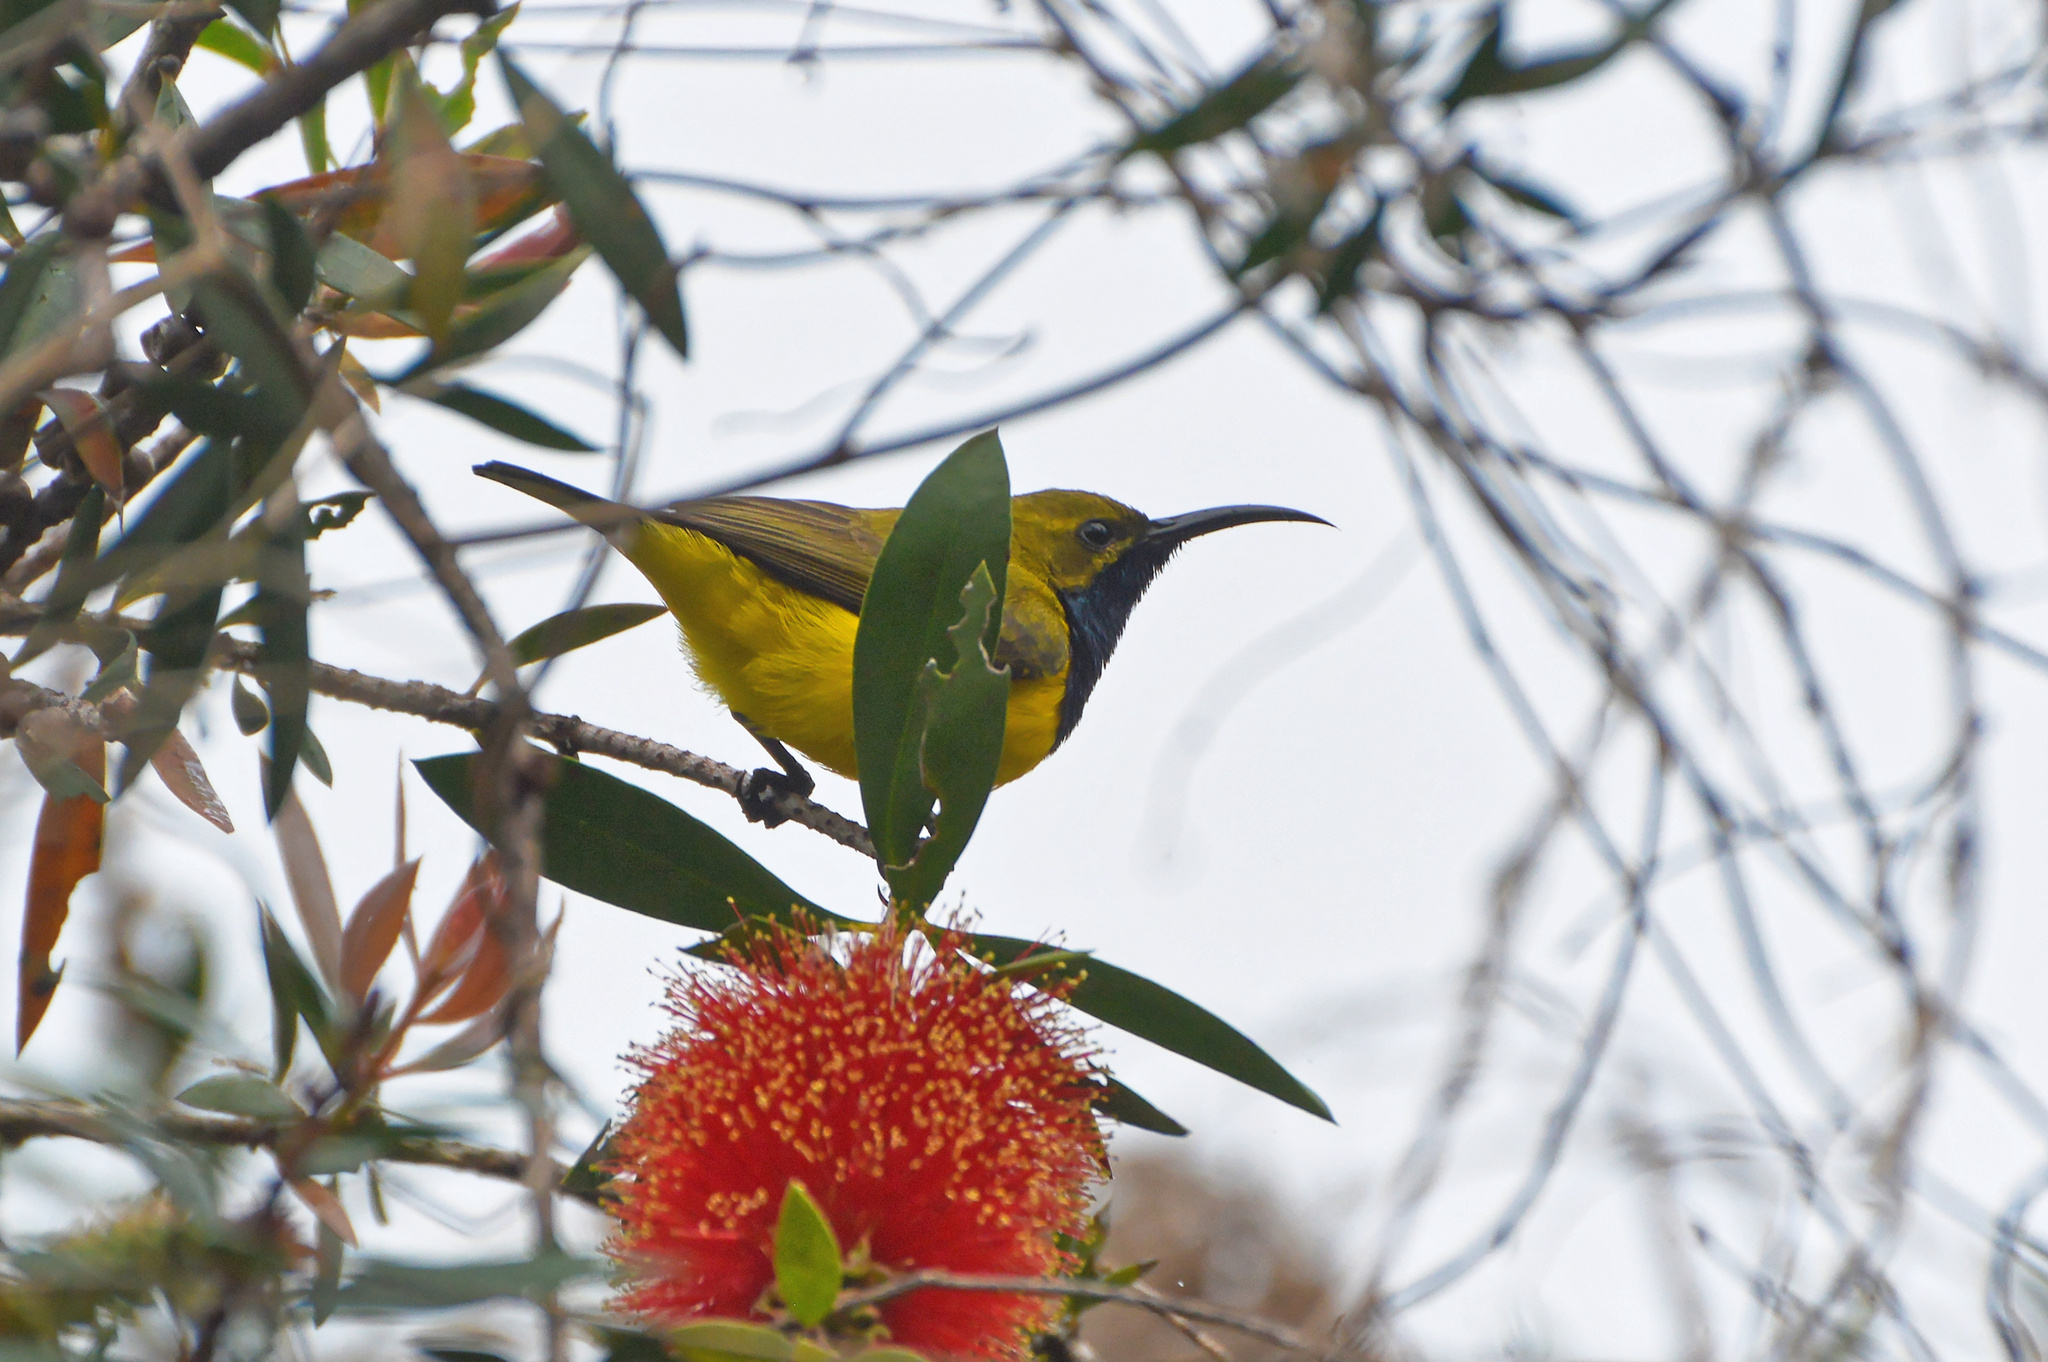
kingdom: Animalia
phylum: Chordata
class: Aves
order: Passeriformes
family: Nectariniidae
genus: Cinnyris
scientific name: Cinnyris
